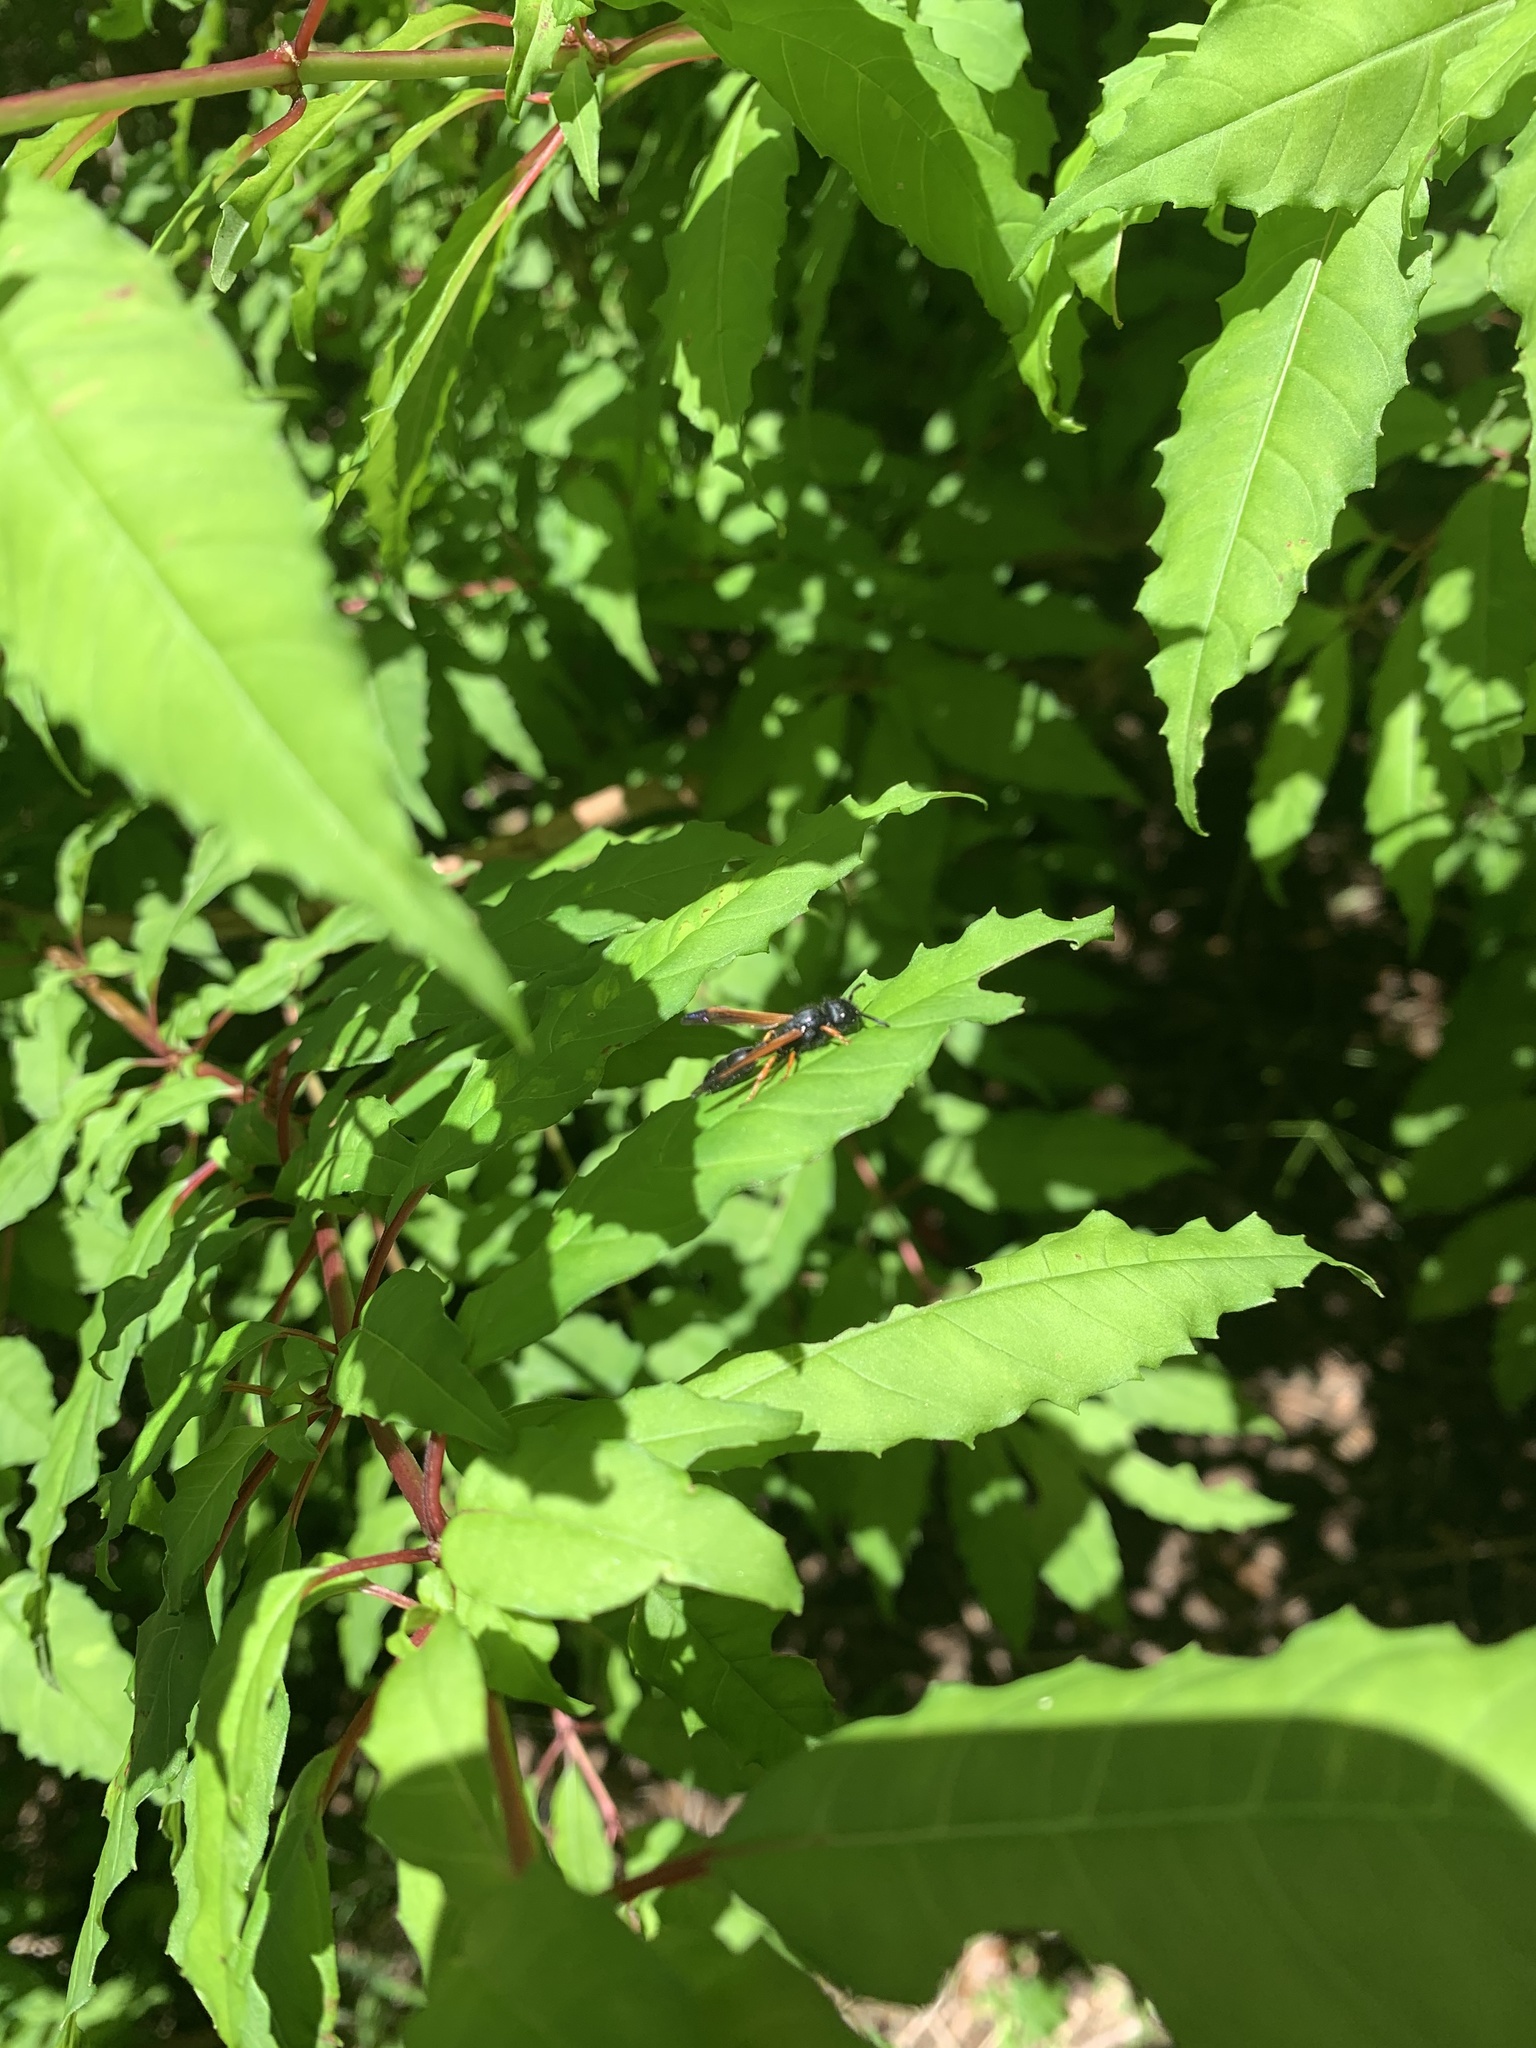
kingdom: Animalia
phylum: Arthropoda
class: Insecta
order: Hymenoptera
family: Eumenidae
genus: Protodiscoelius
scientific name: Protodiscoelius merula
